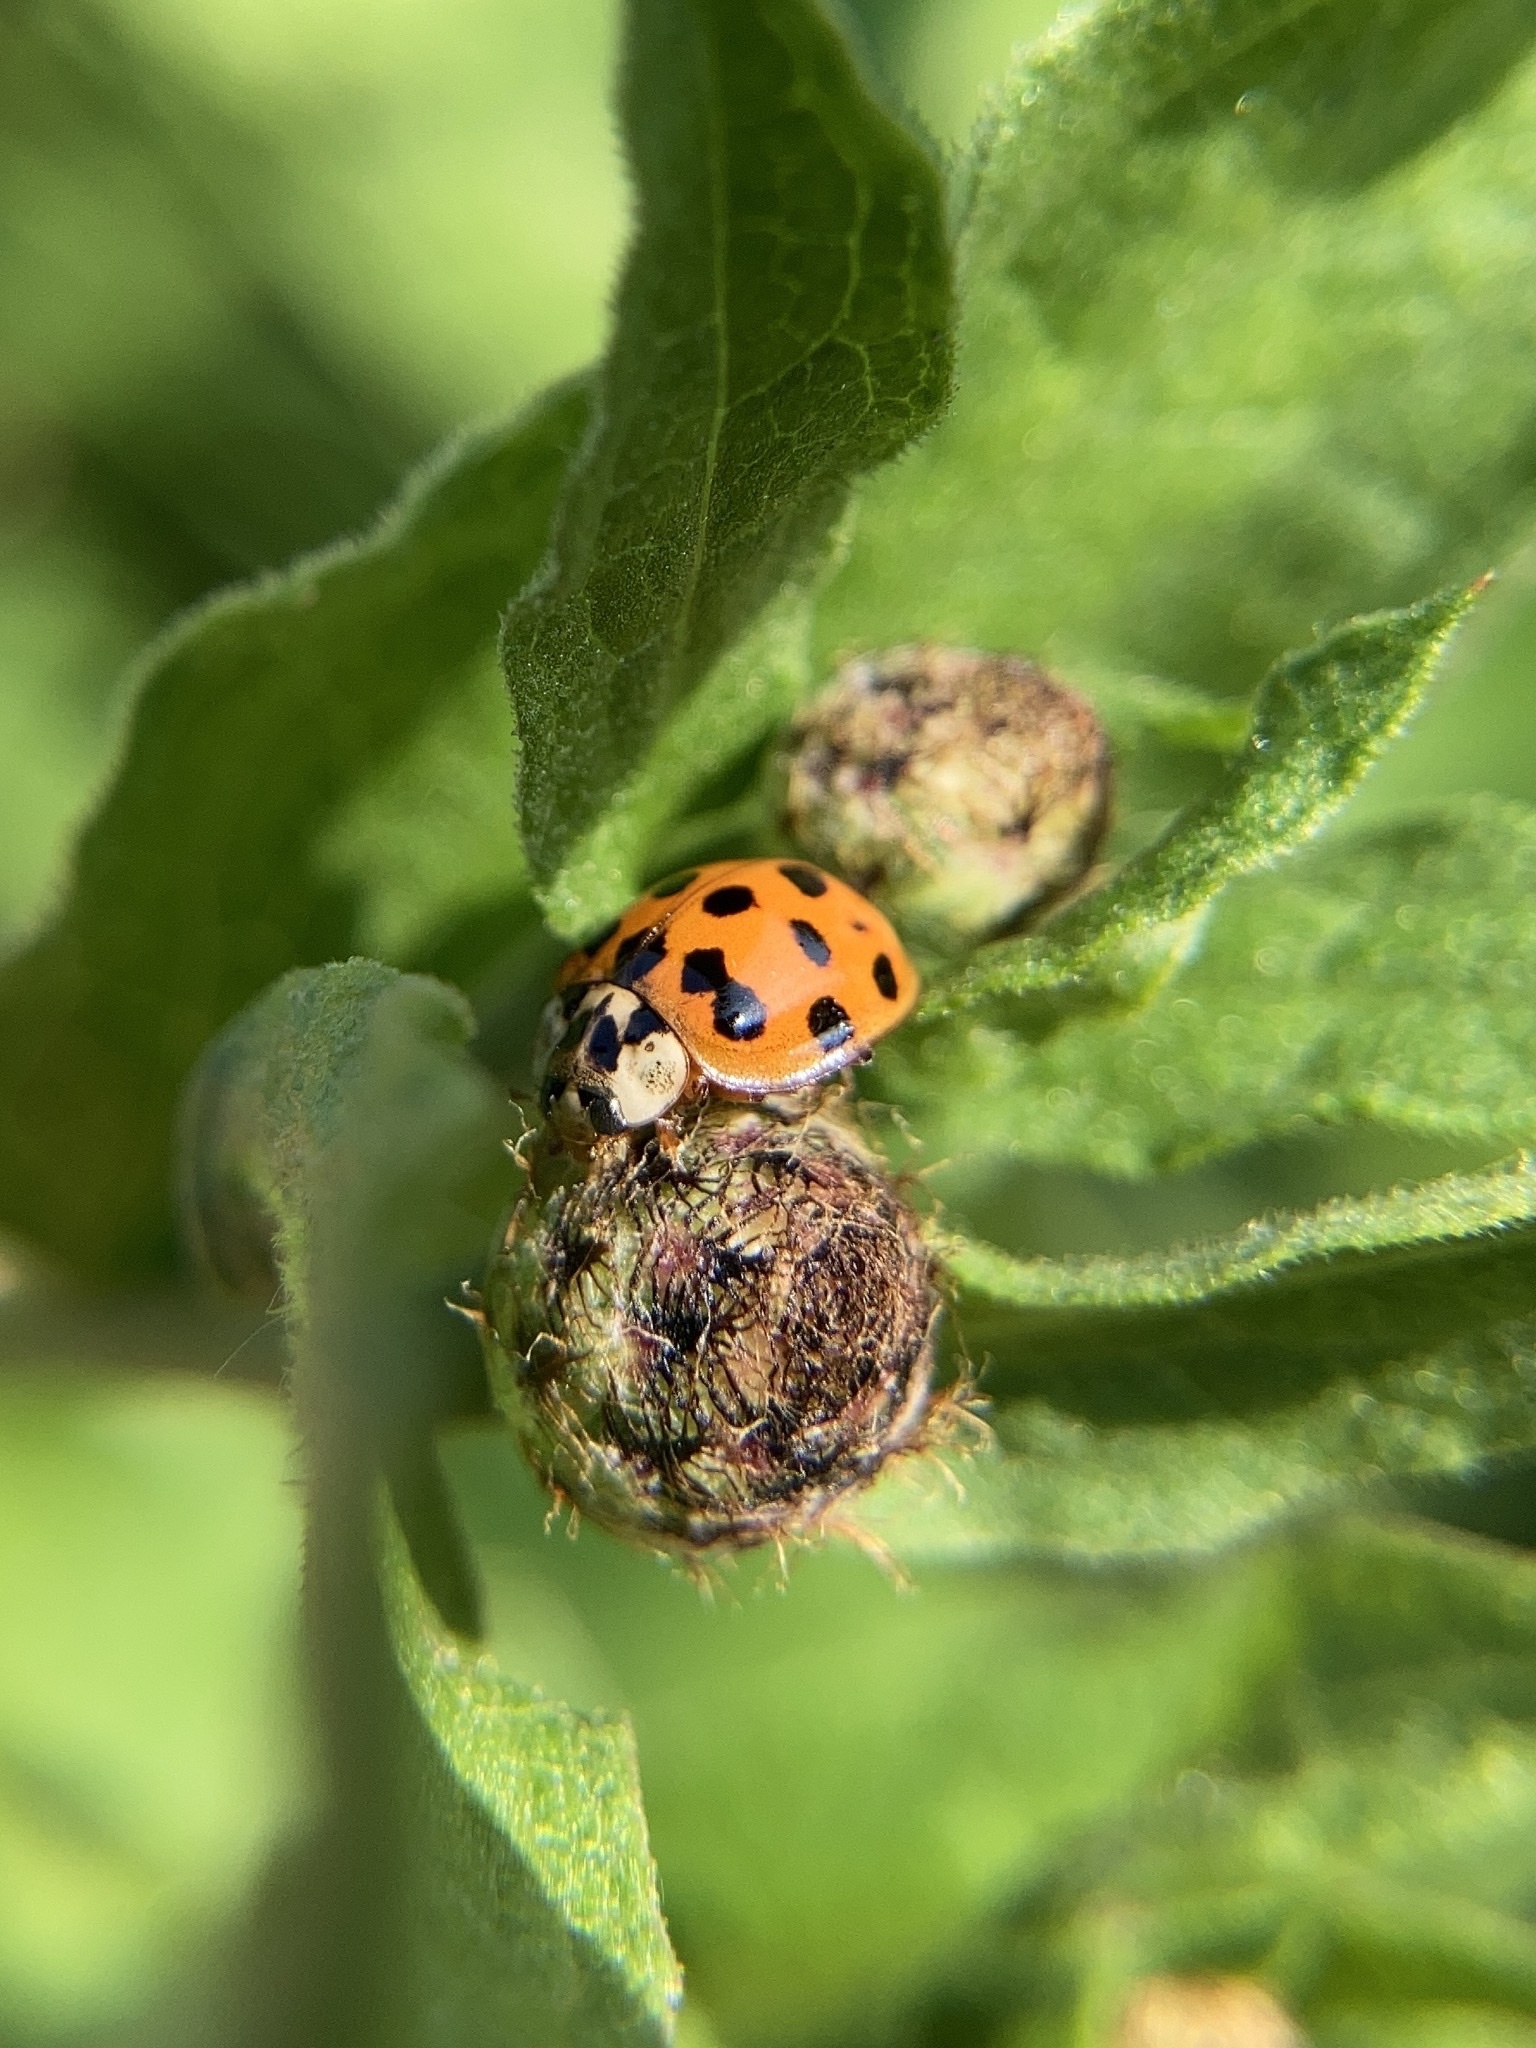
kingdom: Animalia
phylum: Arthropoda
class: Insecta
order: Coleoptera
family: Coccinellidae
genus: Harmonia
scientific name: Harmonia axyridis
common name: Harlequin ladybird
